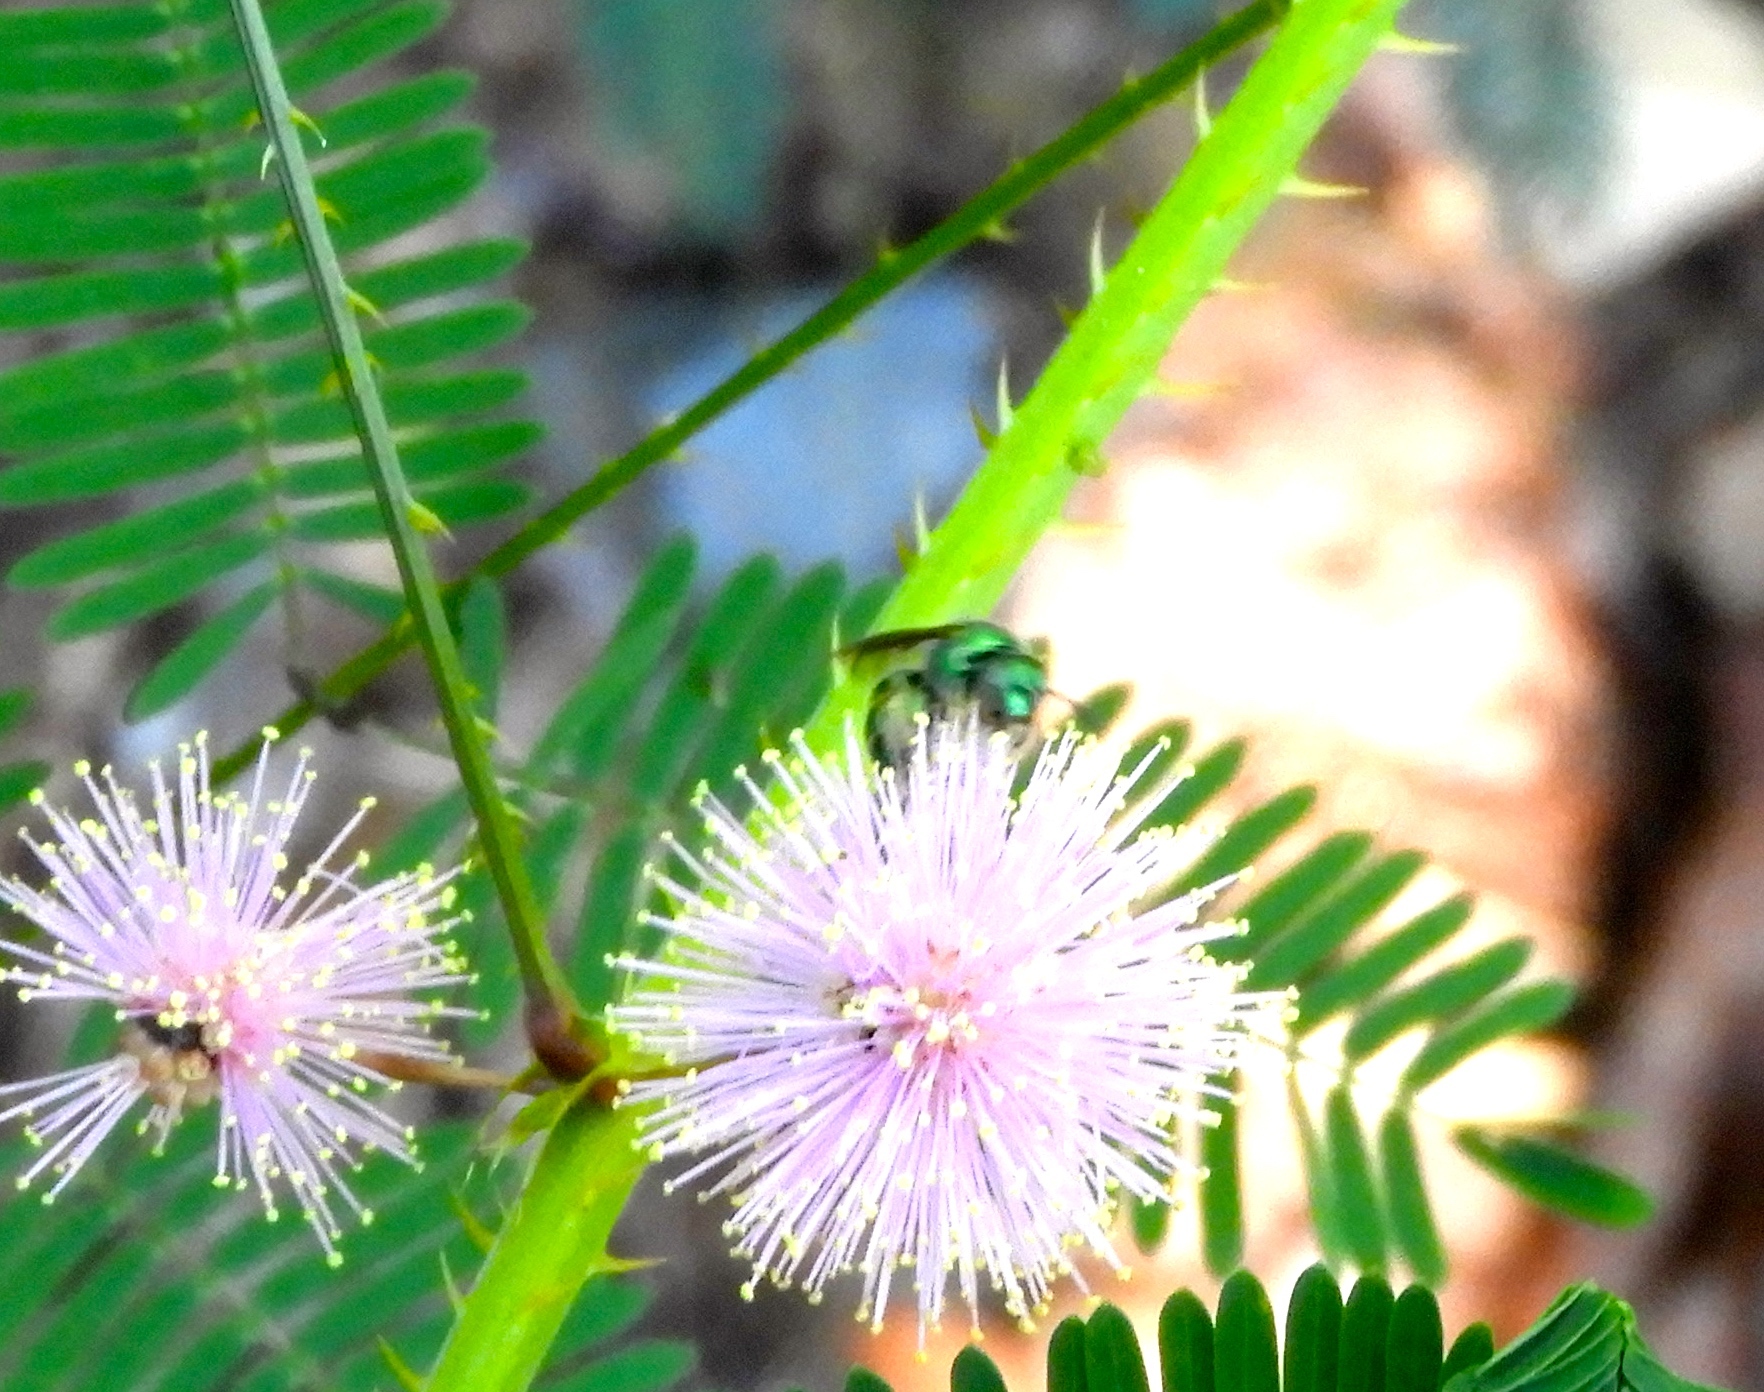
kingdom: Animalia
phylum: Arthropoda
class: Insecta
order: Hymenoptera
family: Halictidae
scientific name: Halictidae
